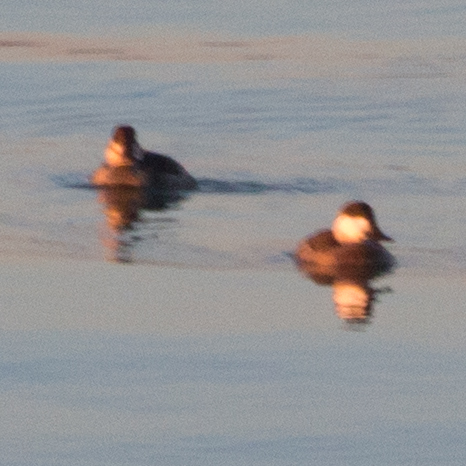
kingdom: Animalia
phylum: Chordata
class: Aves
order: Anseriformes
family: Anatidae
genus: Oxyura
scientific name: Oxyura jamaicensis
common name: Ruddy duck
